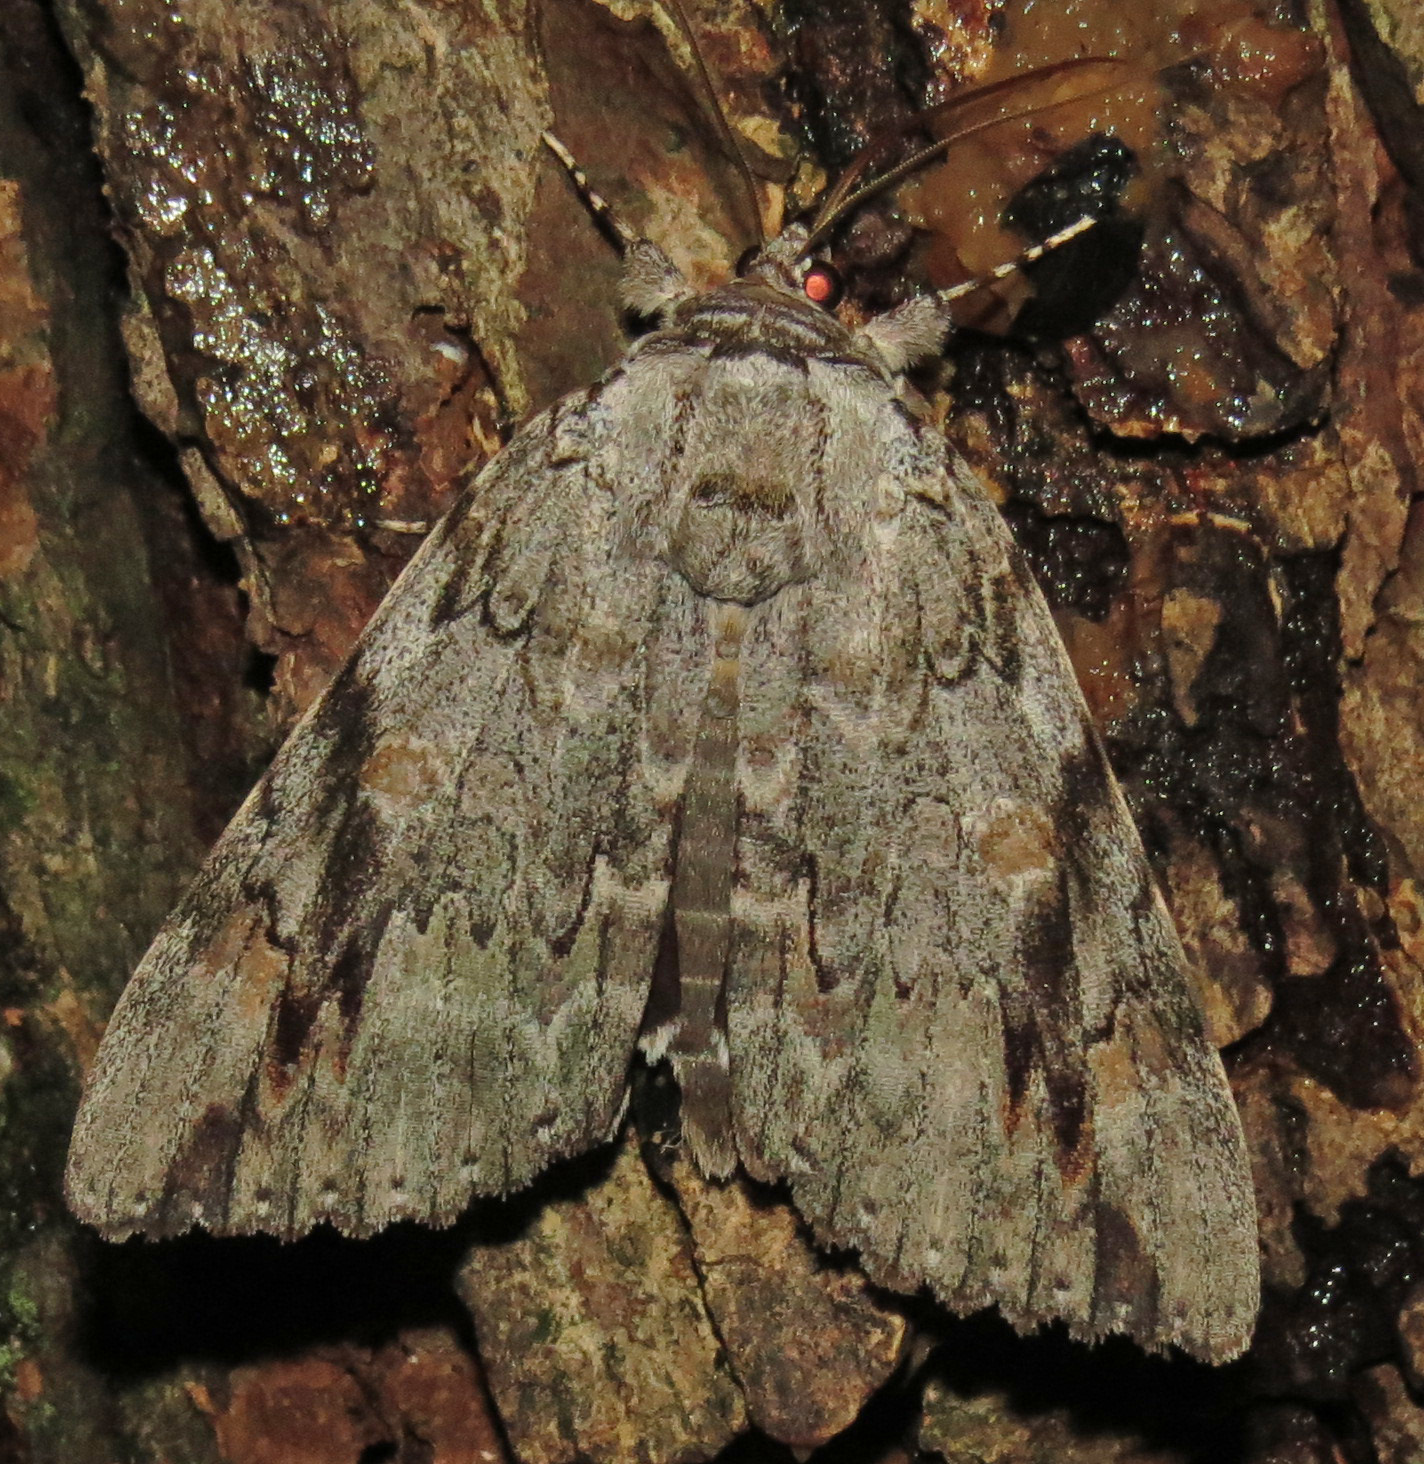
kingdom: Animalia
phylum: Arthropoda
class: Insecta
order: Lepidoptera
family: Erebidae
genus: Catocala
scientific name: Catocala maestosa
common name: Sad underwing
